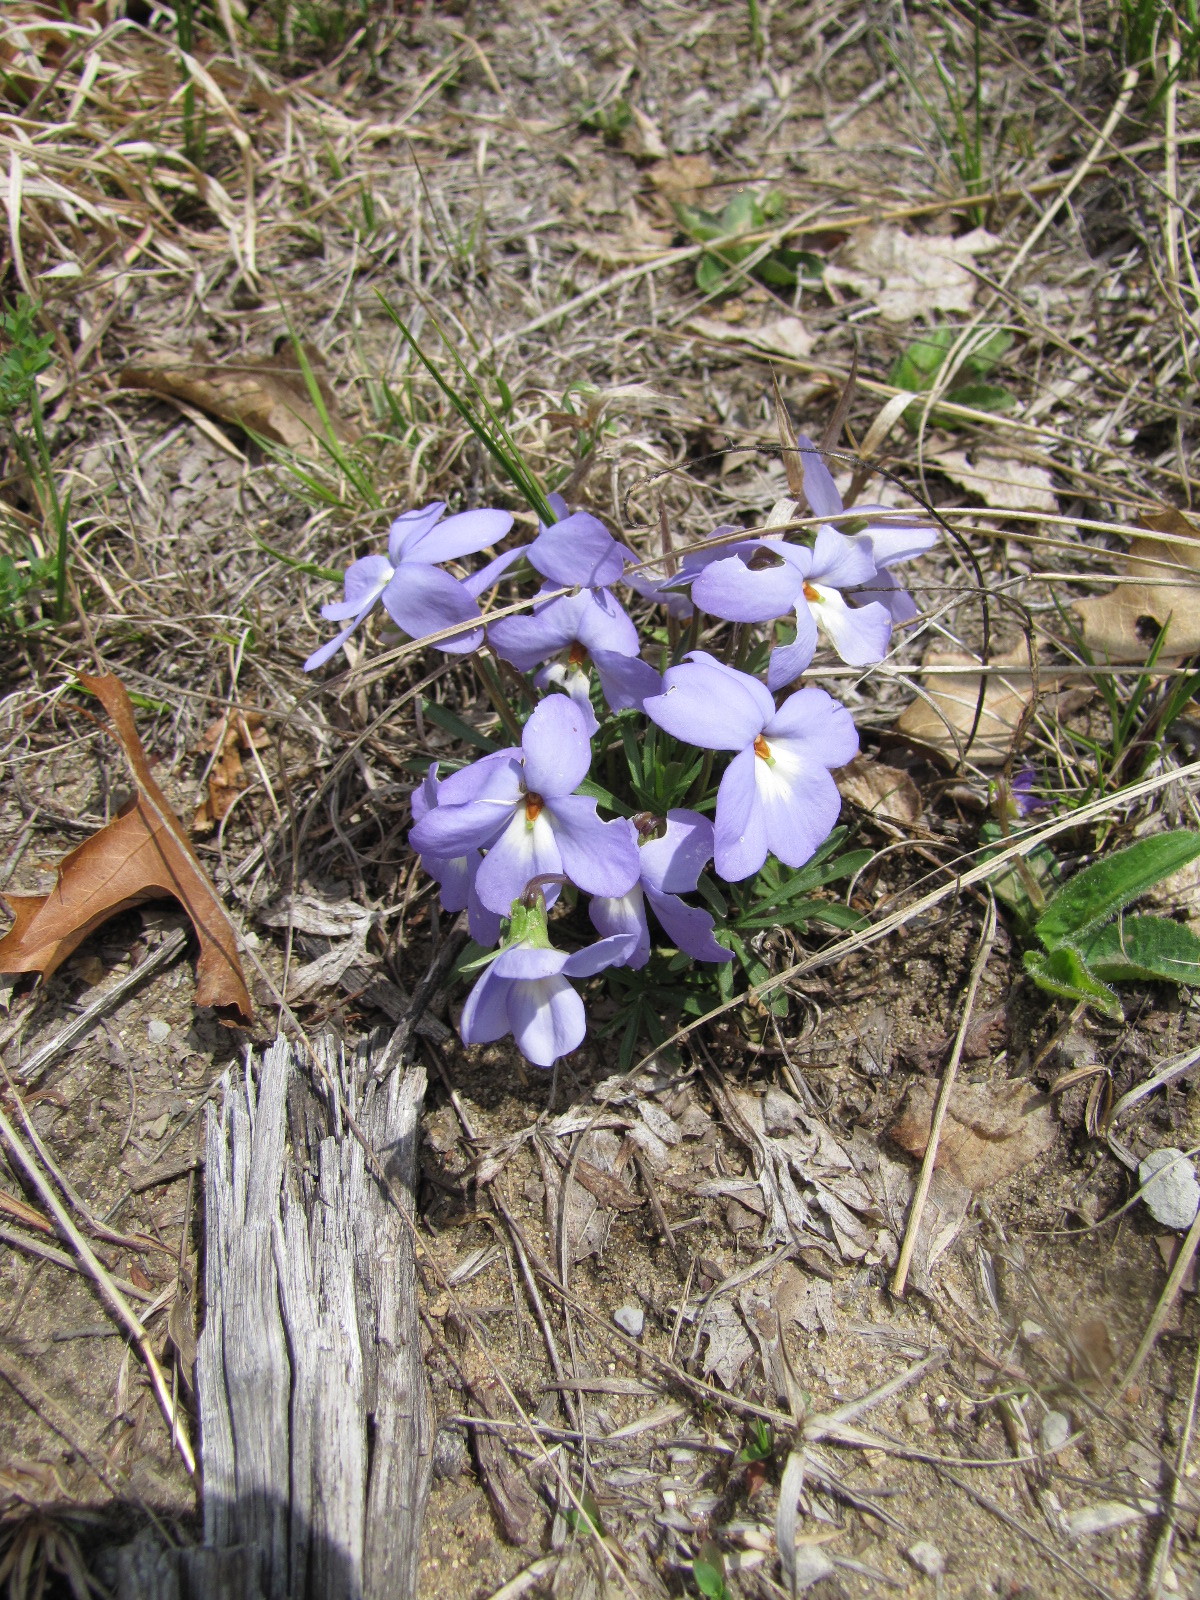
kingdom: Plantae
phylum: Tracheophyta
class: Magnoliopsida
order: Malpighiales
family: Violaceae
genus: Viola
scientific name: Viola pedata
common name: Pansy violet
